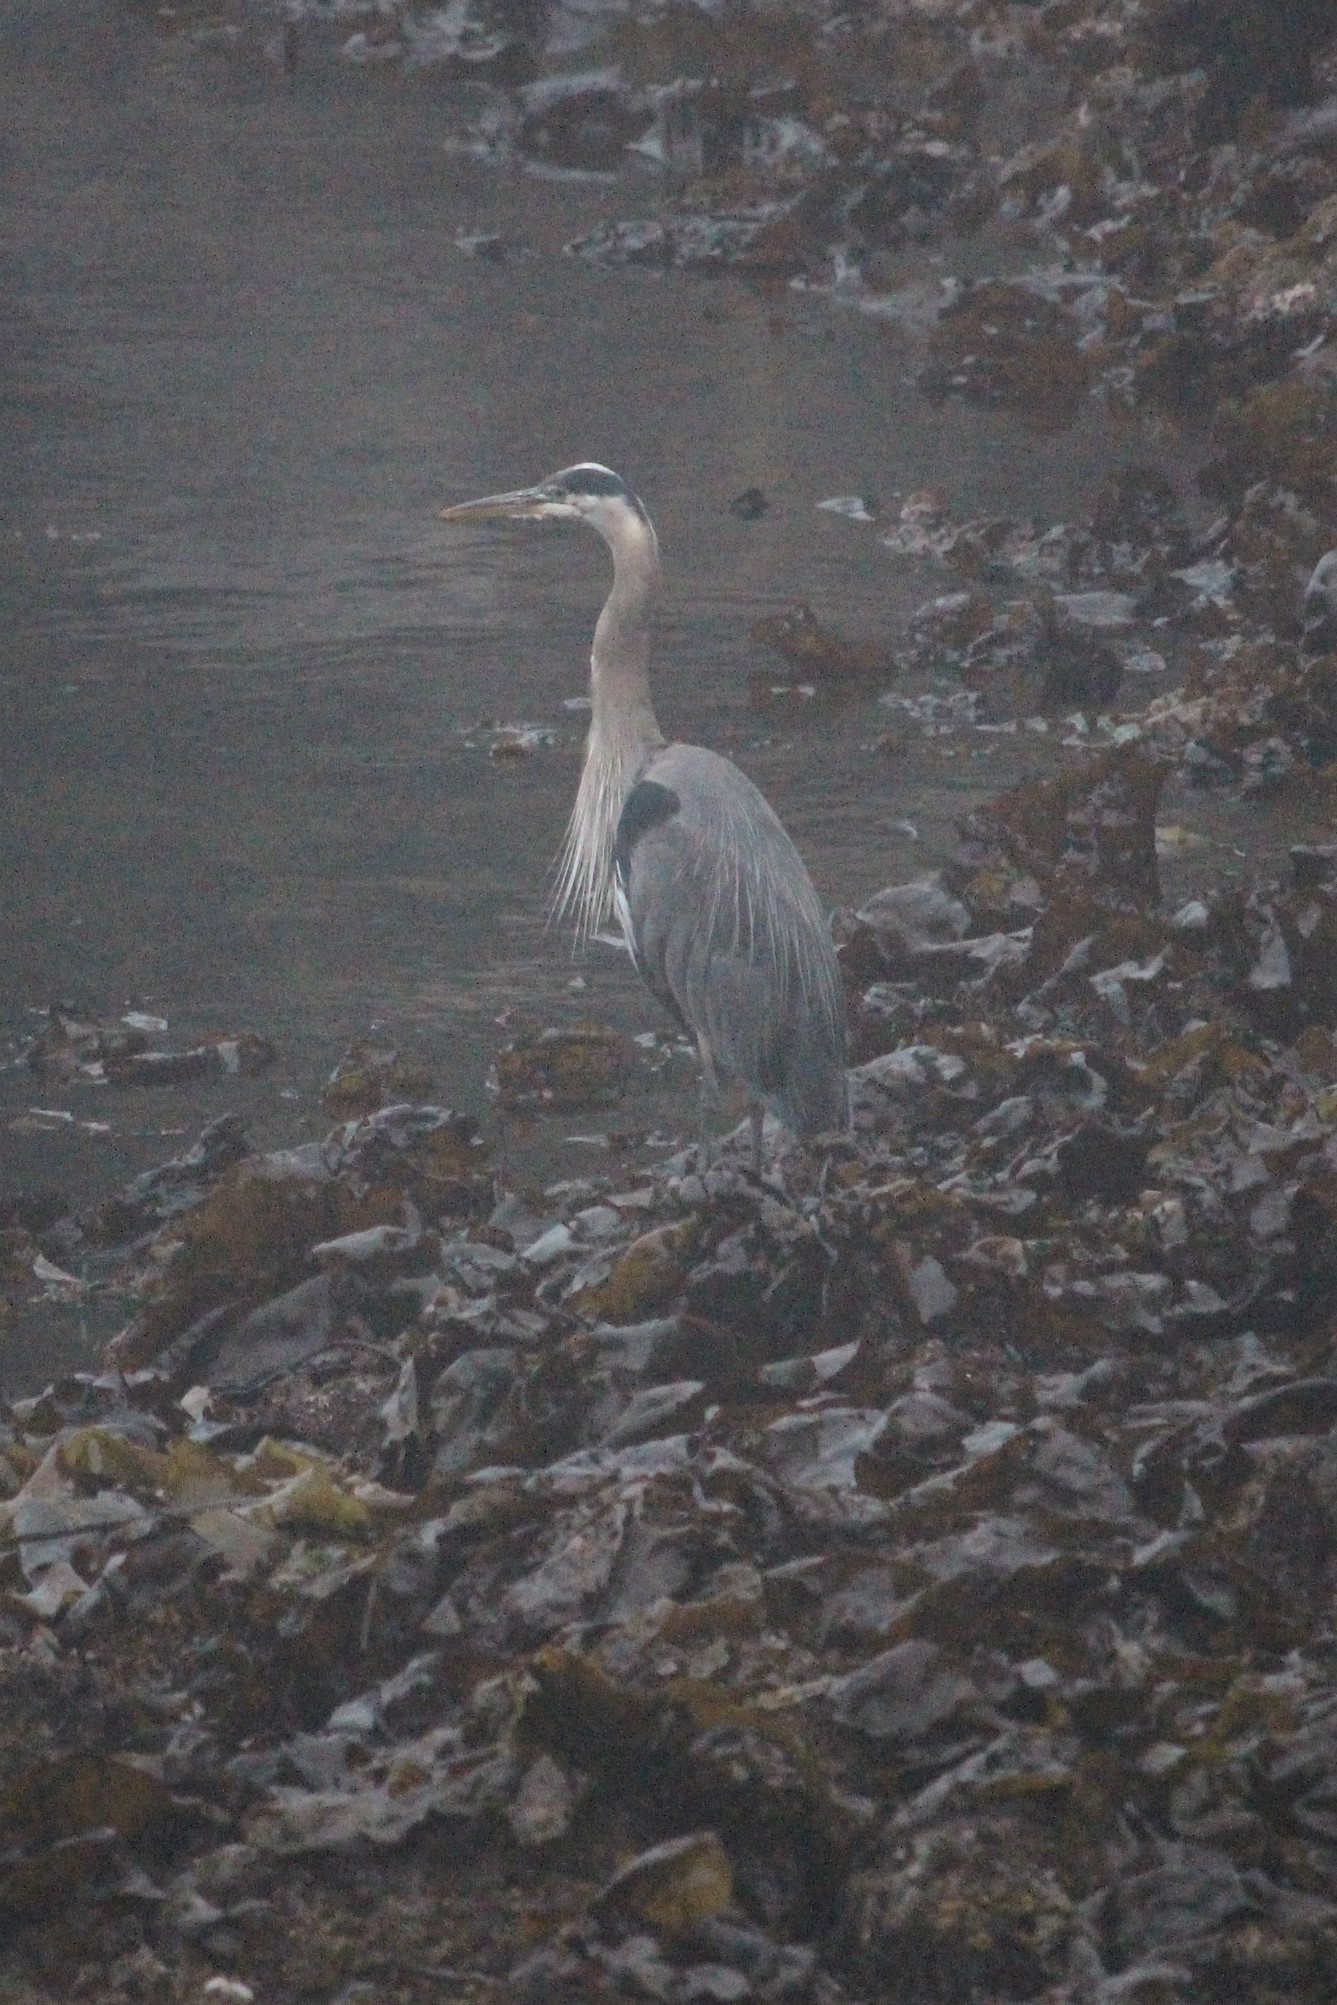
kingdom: Animalia
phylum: Chordata
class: Aves
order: Pelecaniformes
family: Ardeidae
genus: Ardea
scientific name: Ardea herodias
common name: Great blue heron
